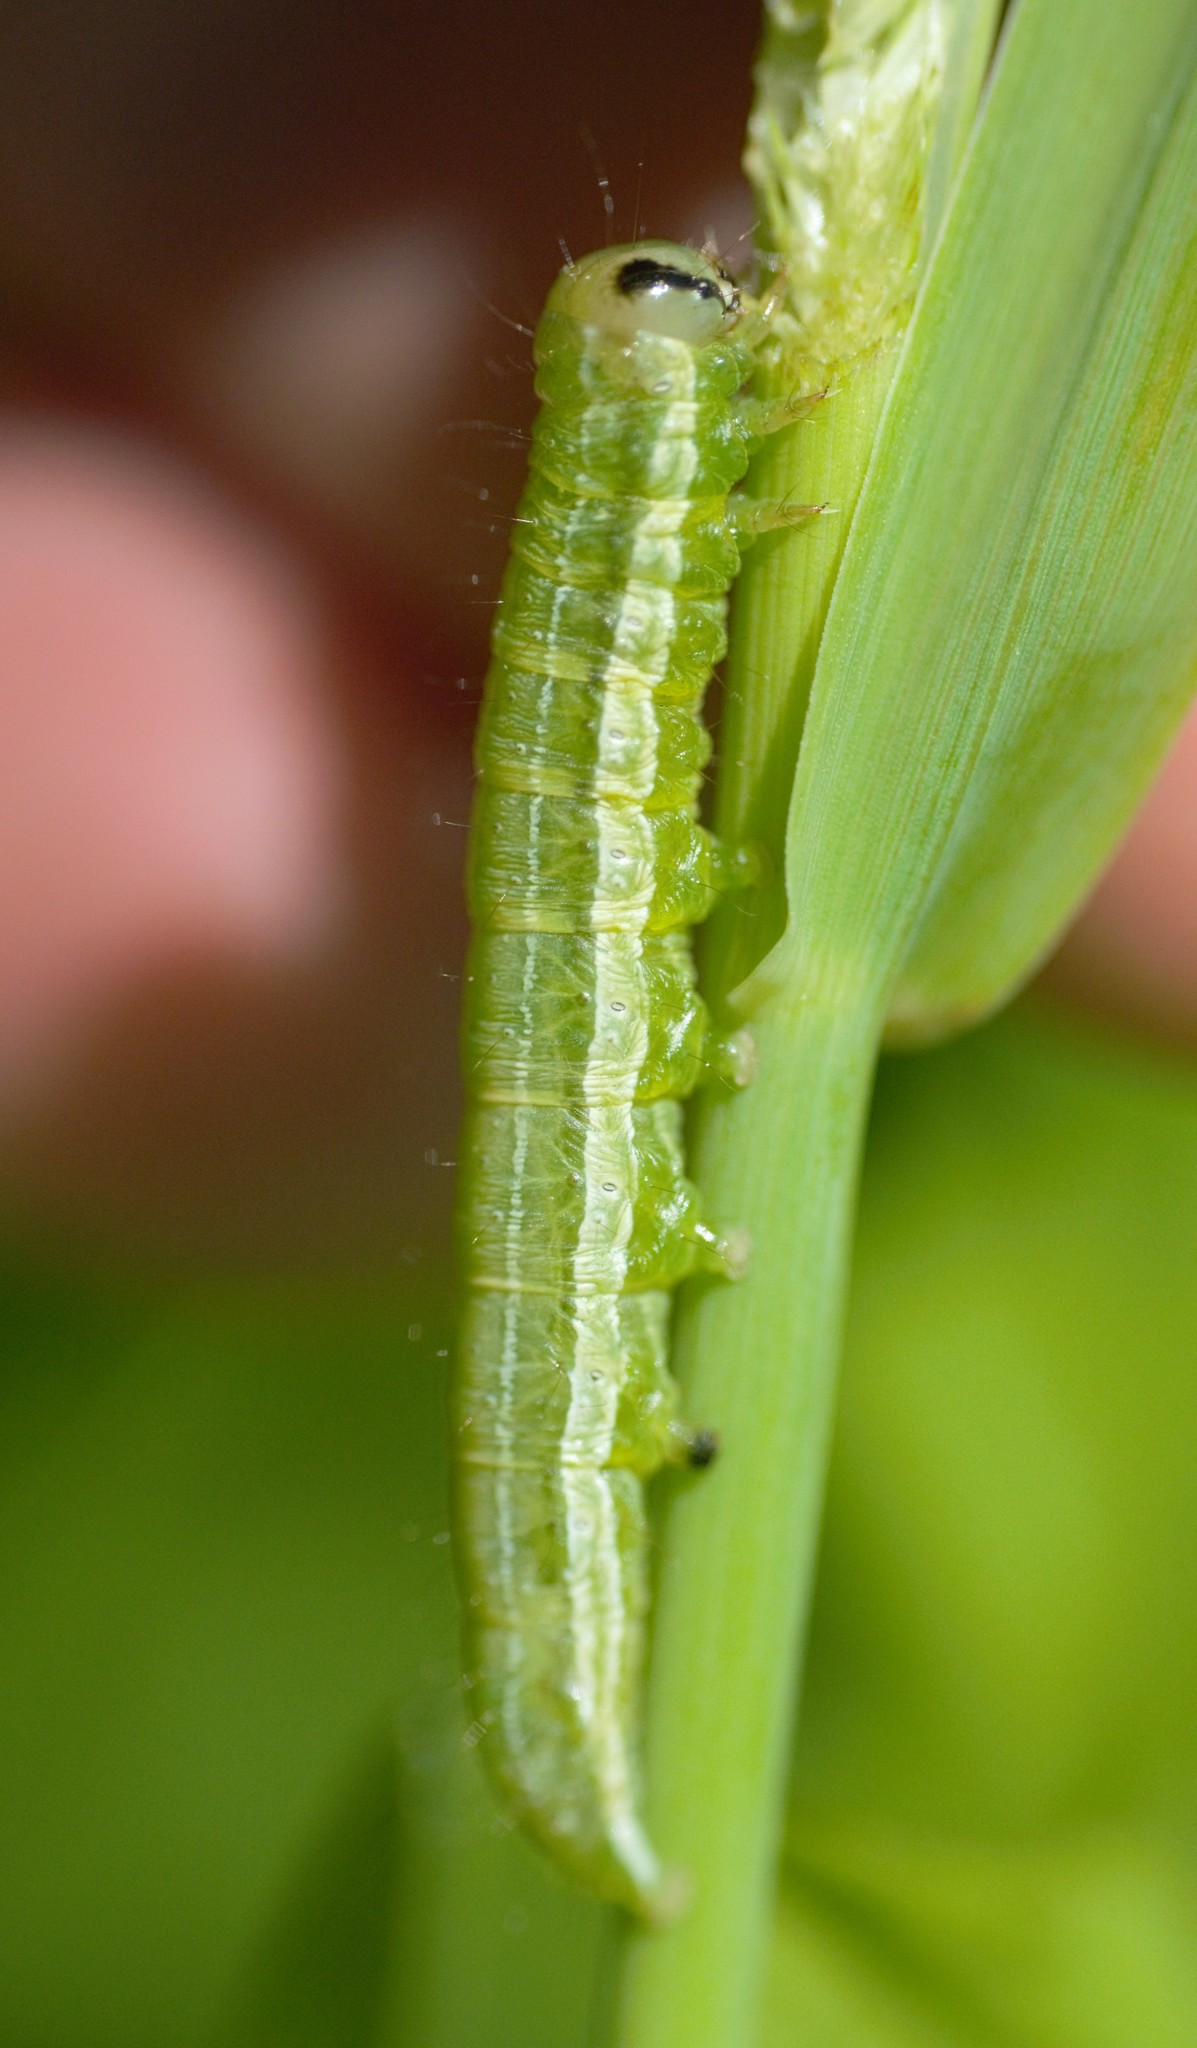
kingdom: Animalia
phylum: Arthropoda
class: Insecta
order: Lepidoptera
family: Noctuidae
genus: Loscopia
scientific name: Loscopia velata
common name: Veiled ear moth
